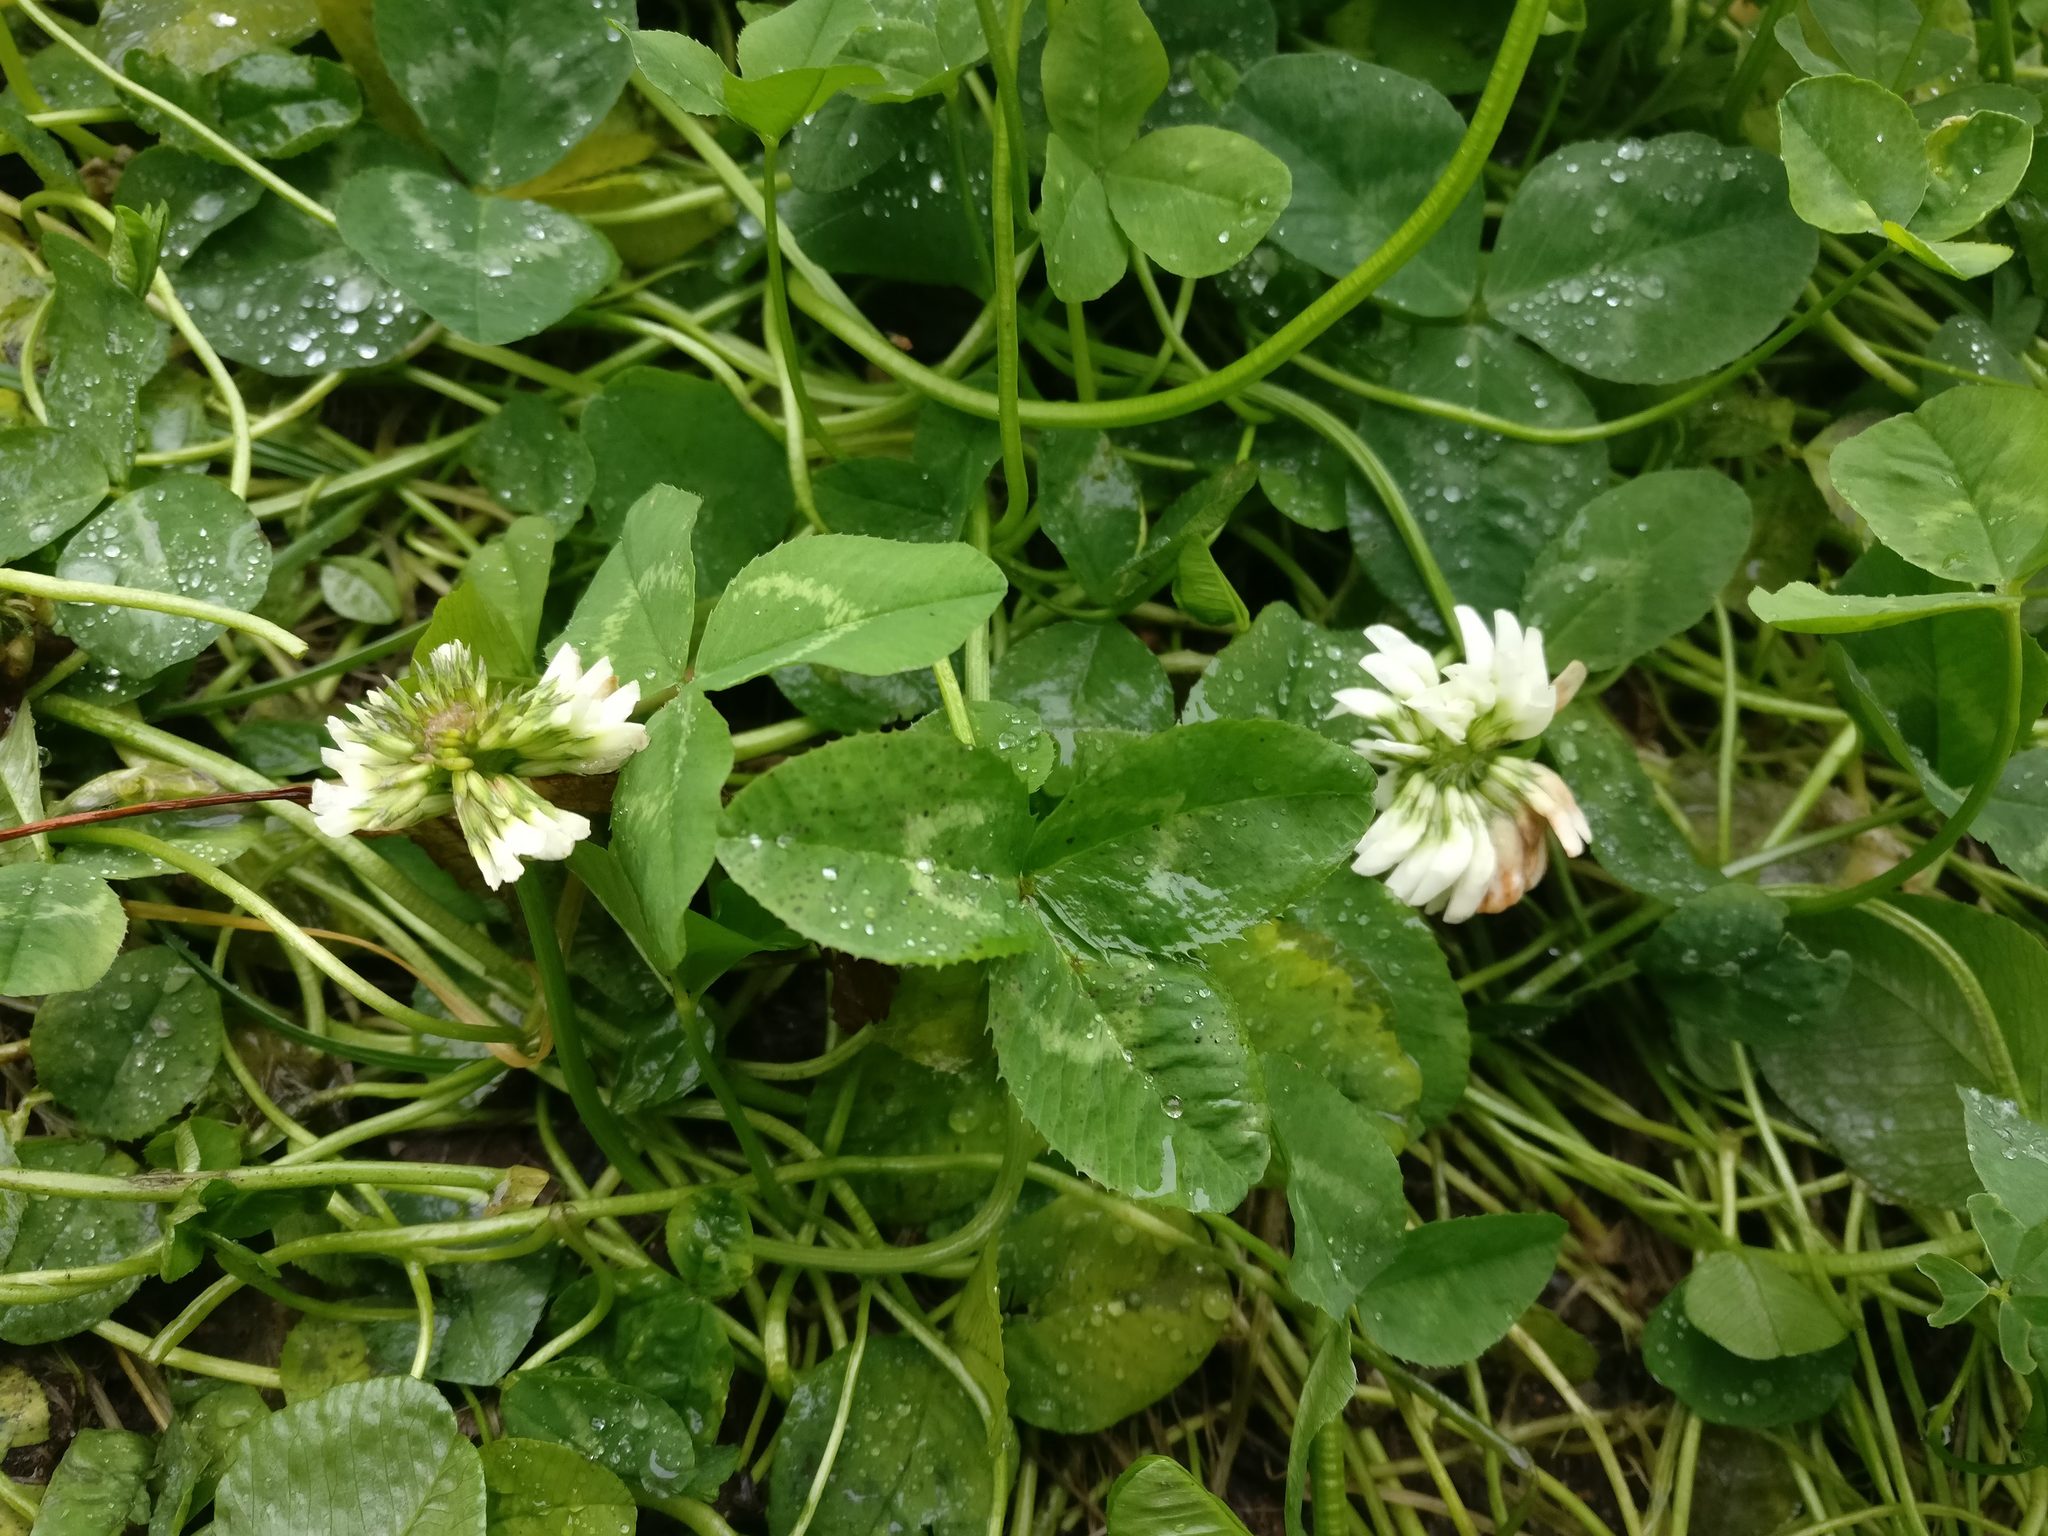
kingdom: Plantae
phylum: Tracheophyta
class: Magnoliopsida
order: Fabales
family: Fabaceae
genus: Trifolium
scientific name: Trifolium repens
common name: White clover
